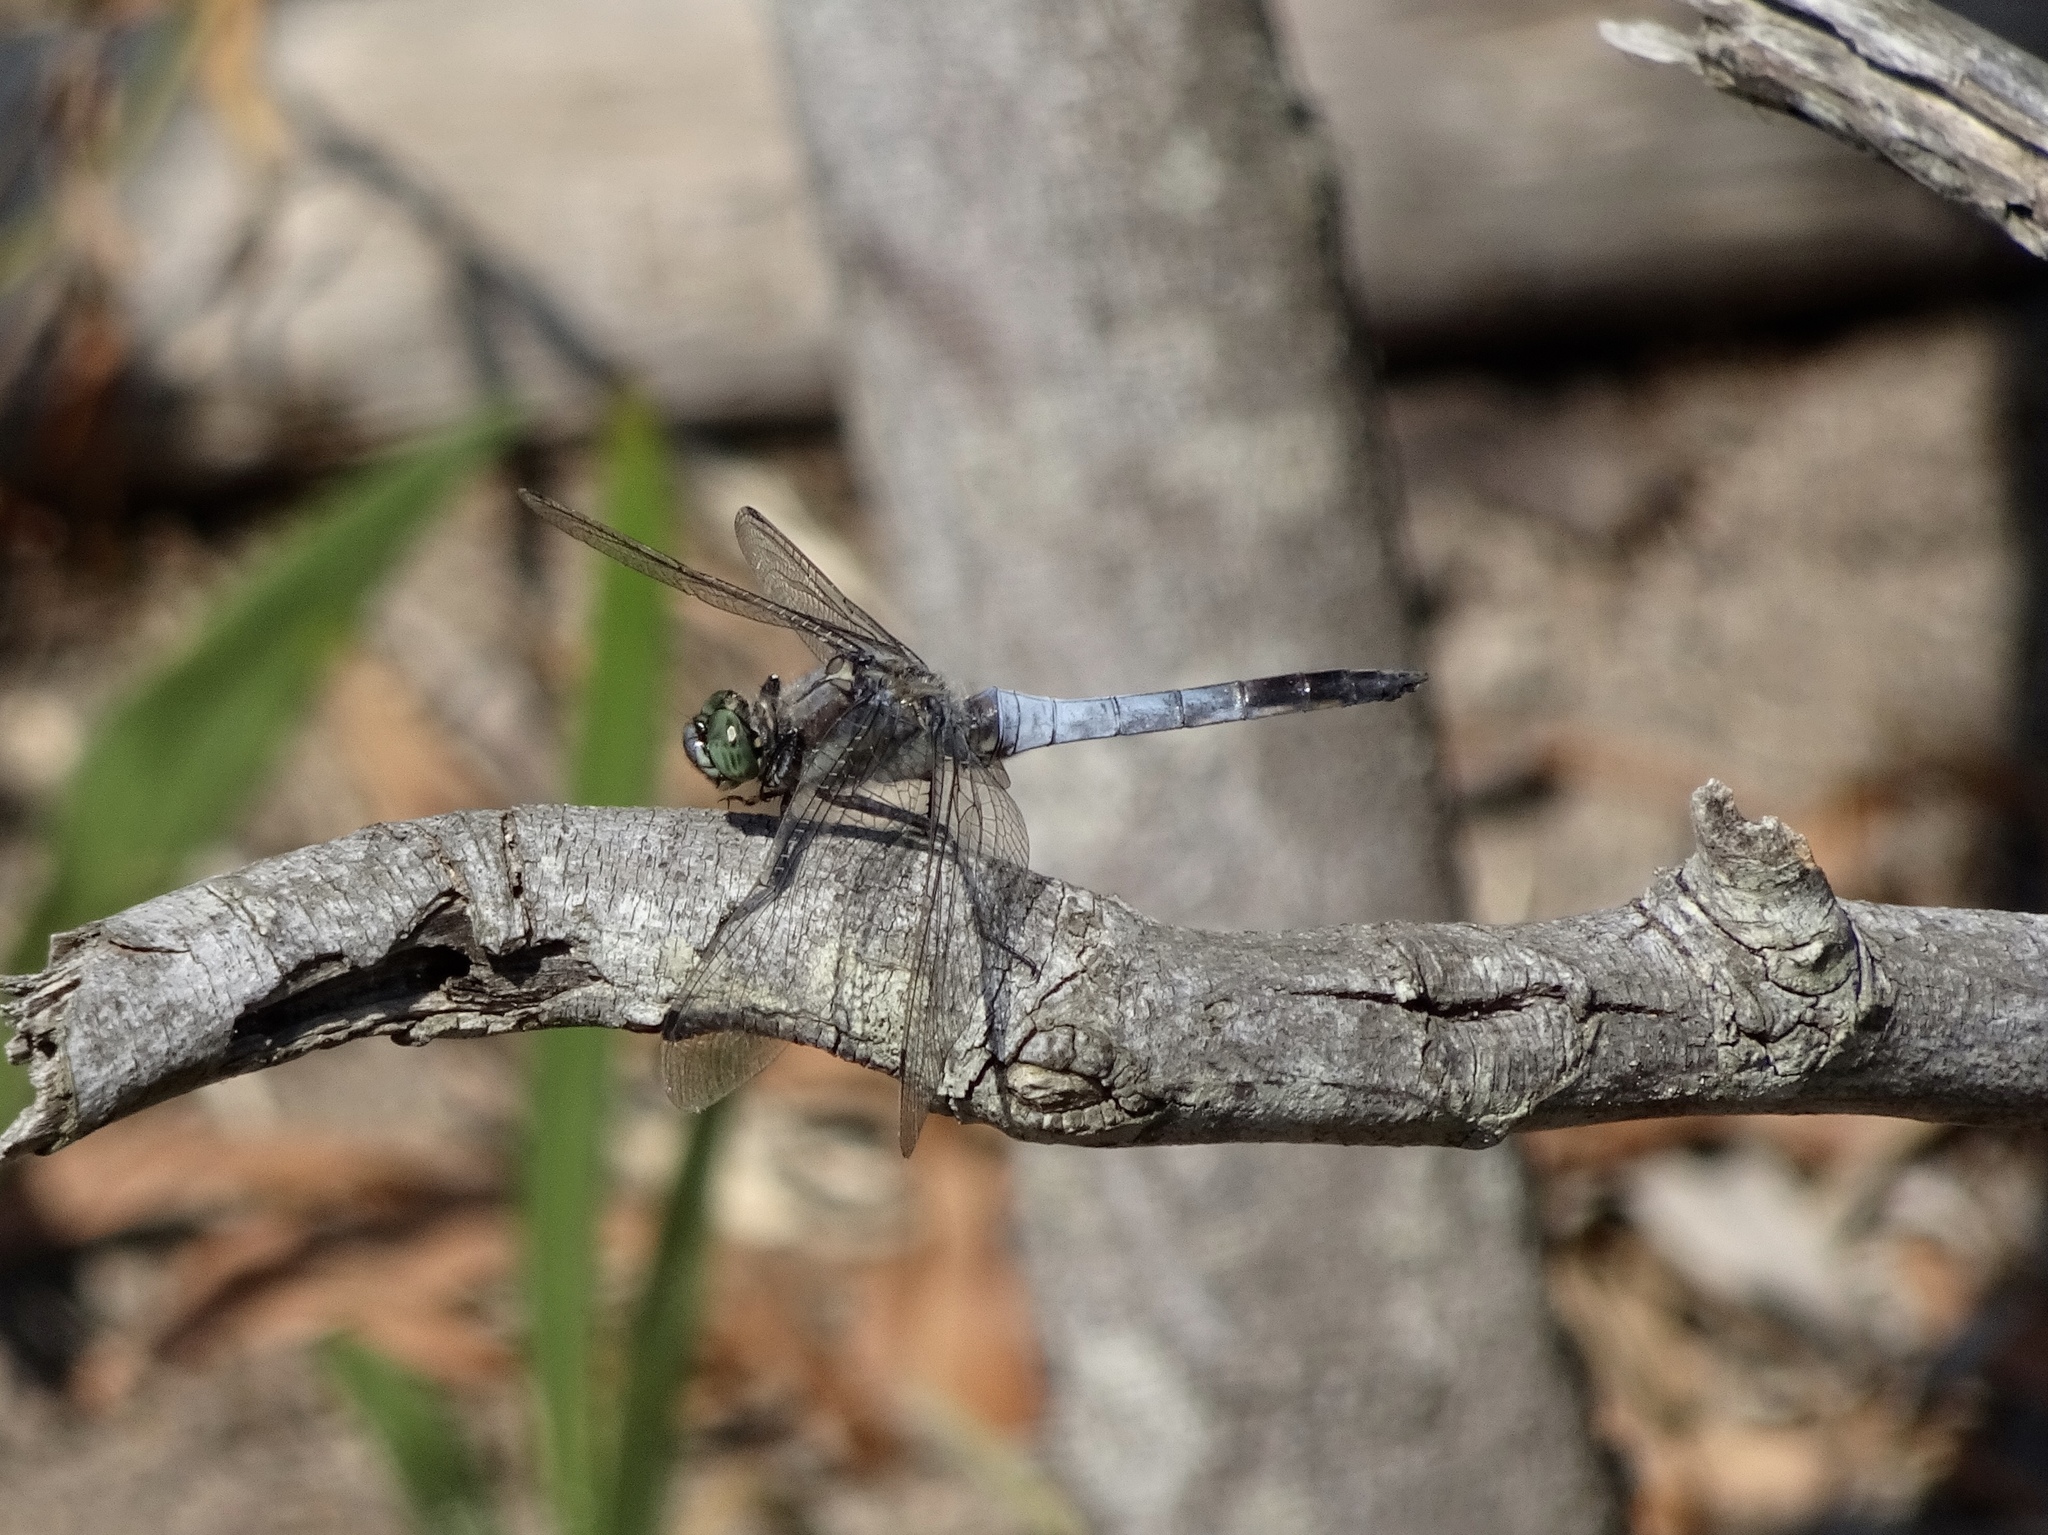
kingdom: Animalia
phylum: Arthropoda
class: Insecta
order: Odonata
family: Libellulidae
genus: Orthetrum
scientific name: Orthetrum cancellatum
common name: Black-tailed skimmer
